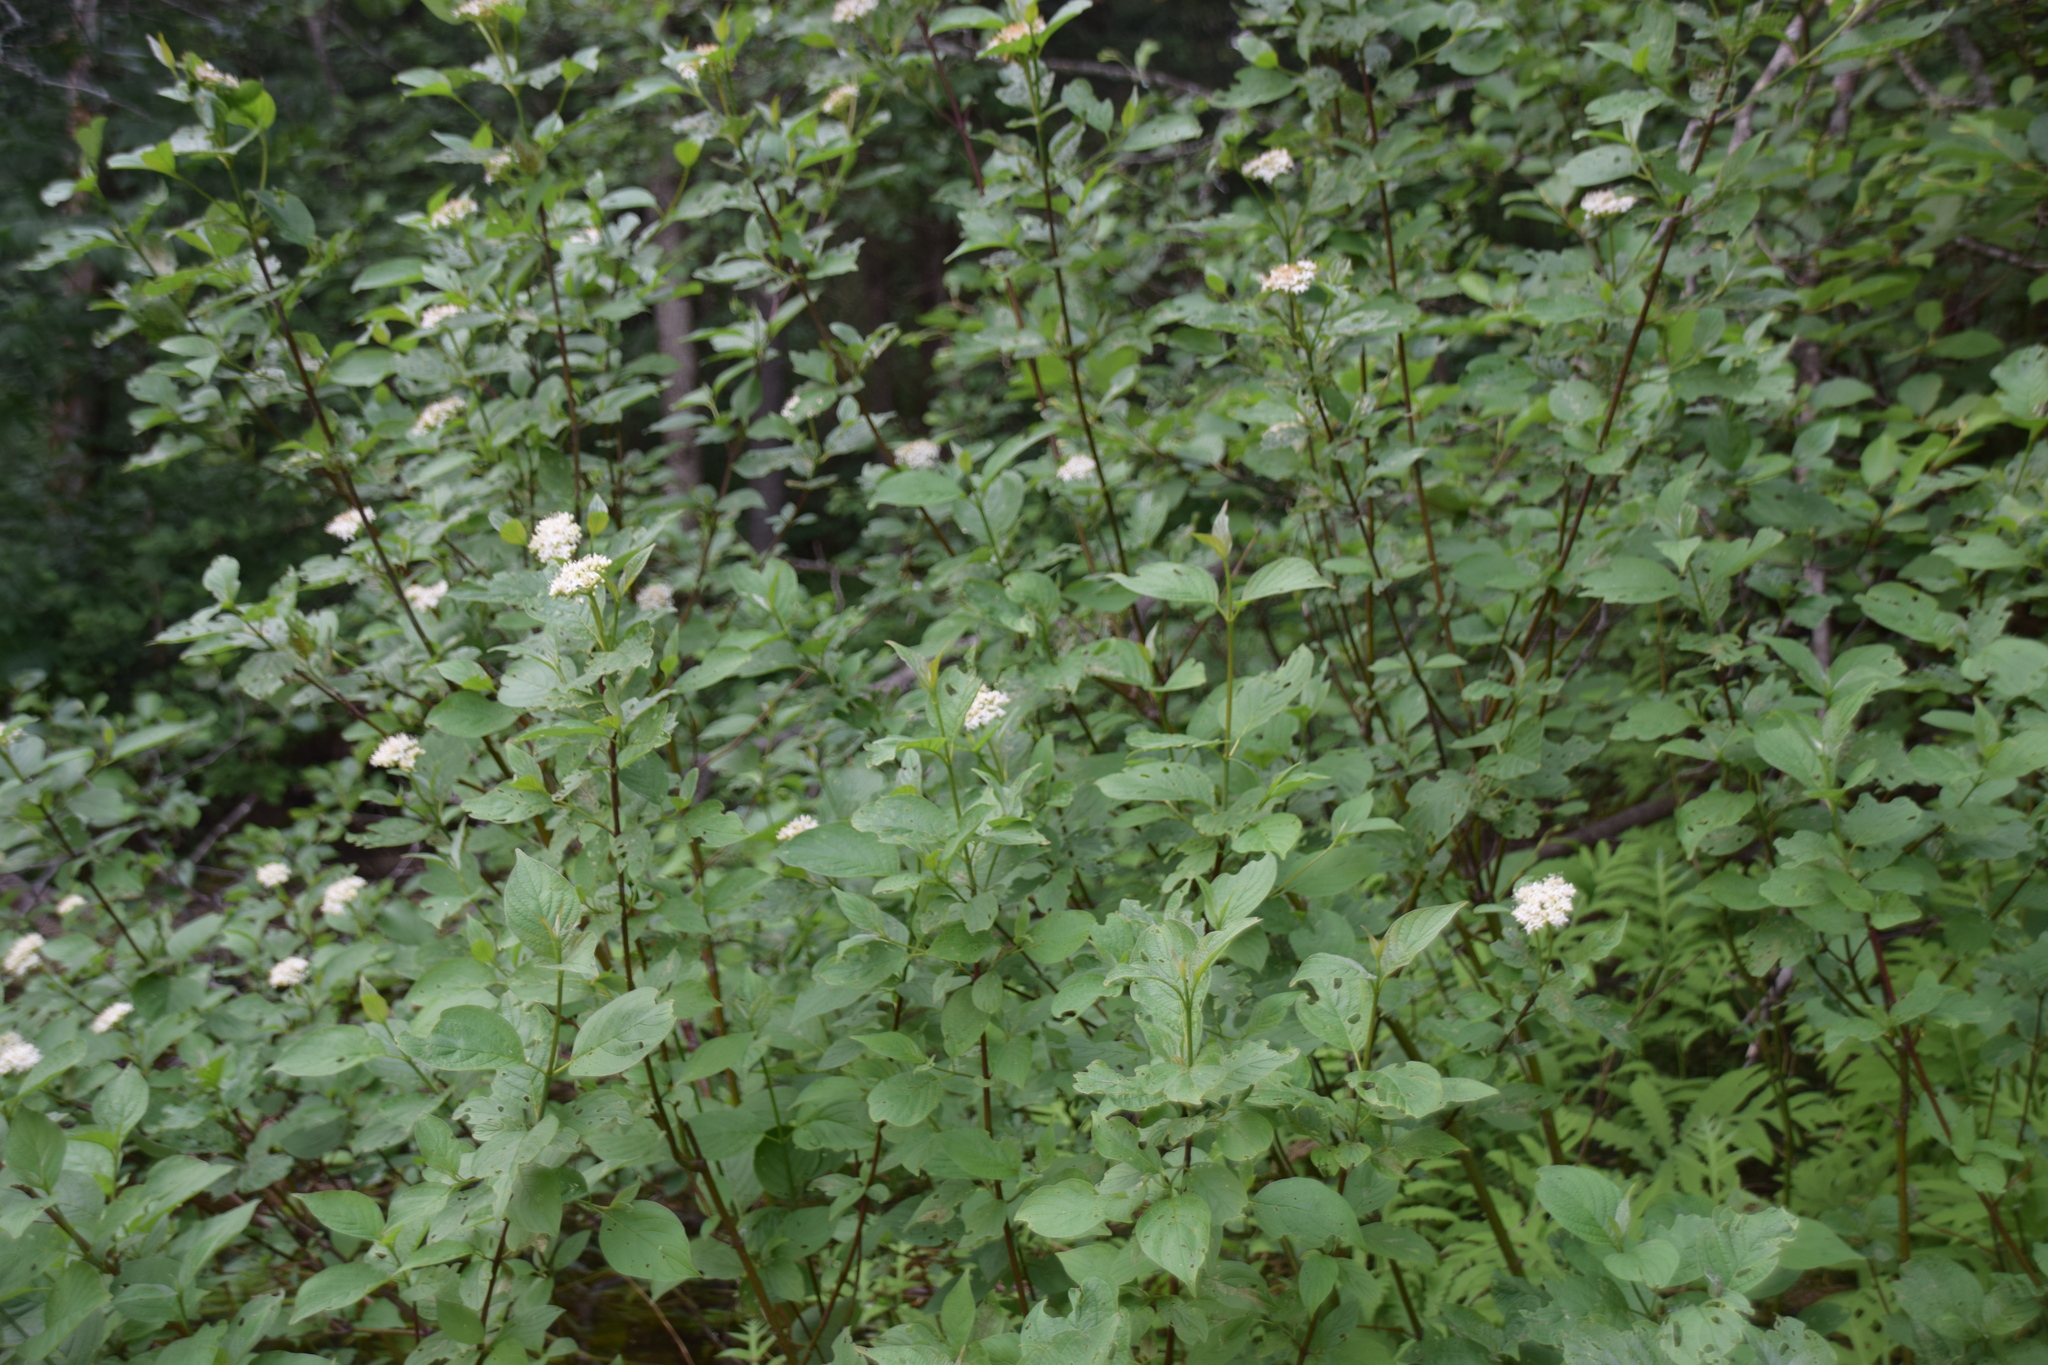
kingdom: Plantae
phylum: Tracheophyta
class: Magnoliopsida
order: Cornales
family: Cornaceae
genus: Cornus
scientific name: Cornus sericea
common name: Red-osier dogwood
